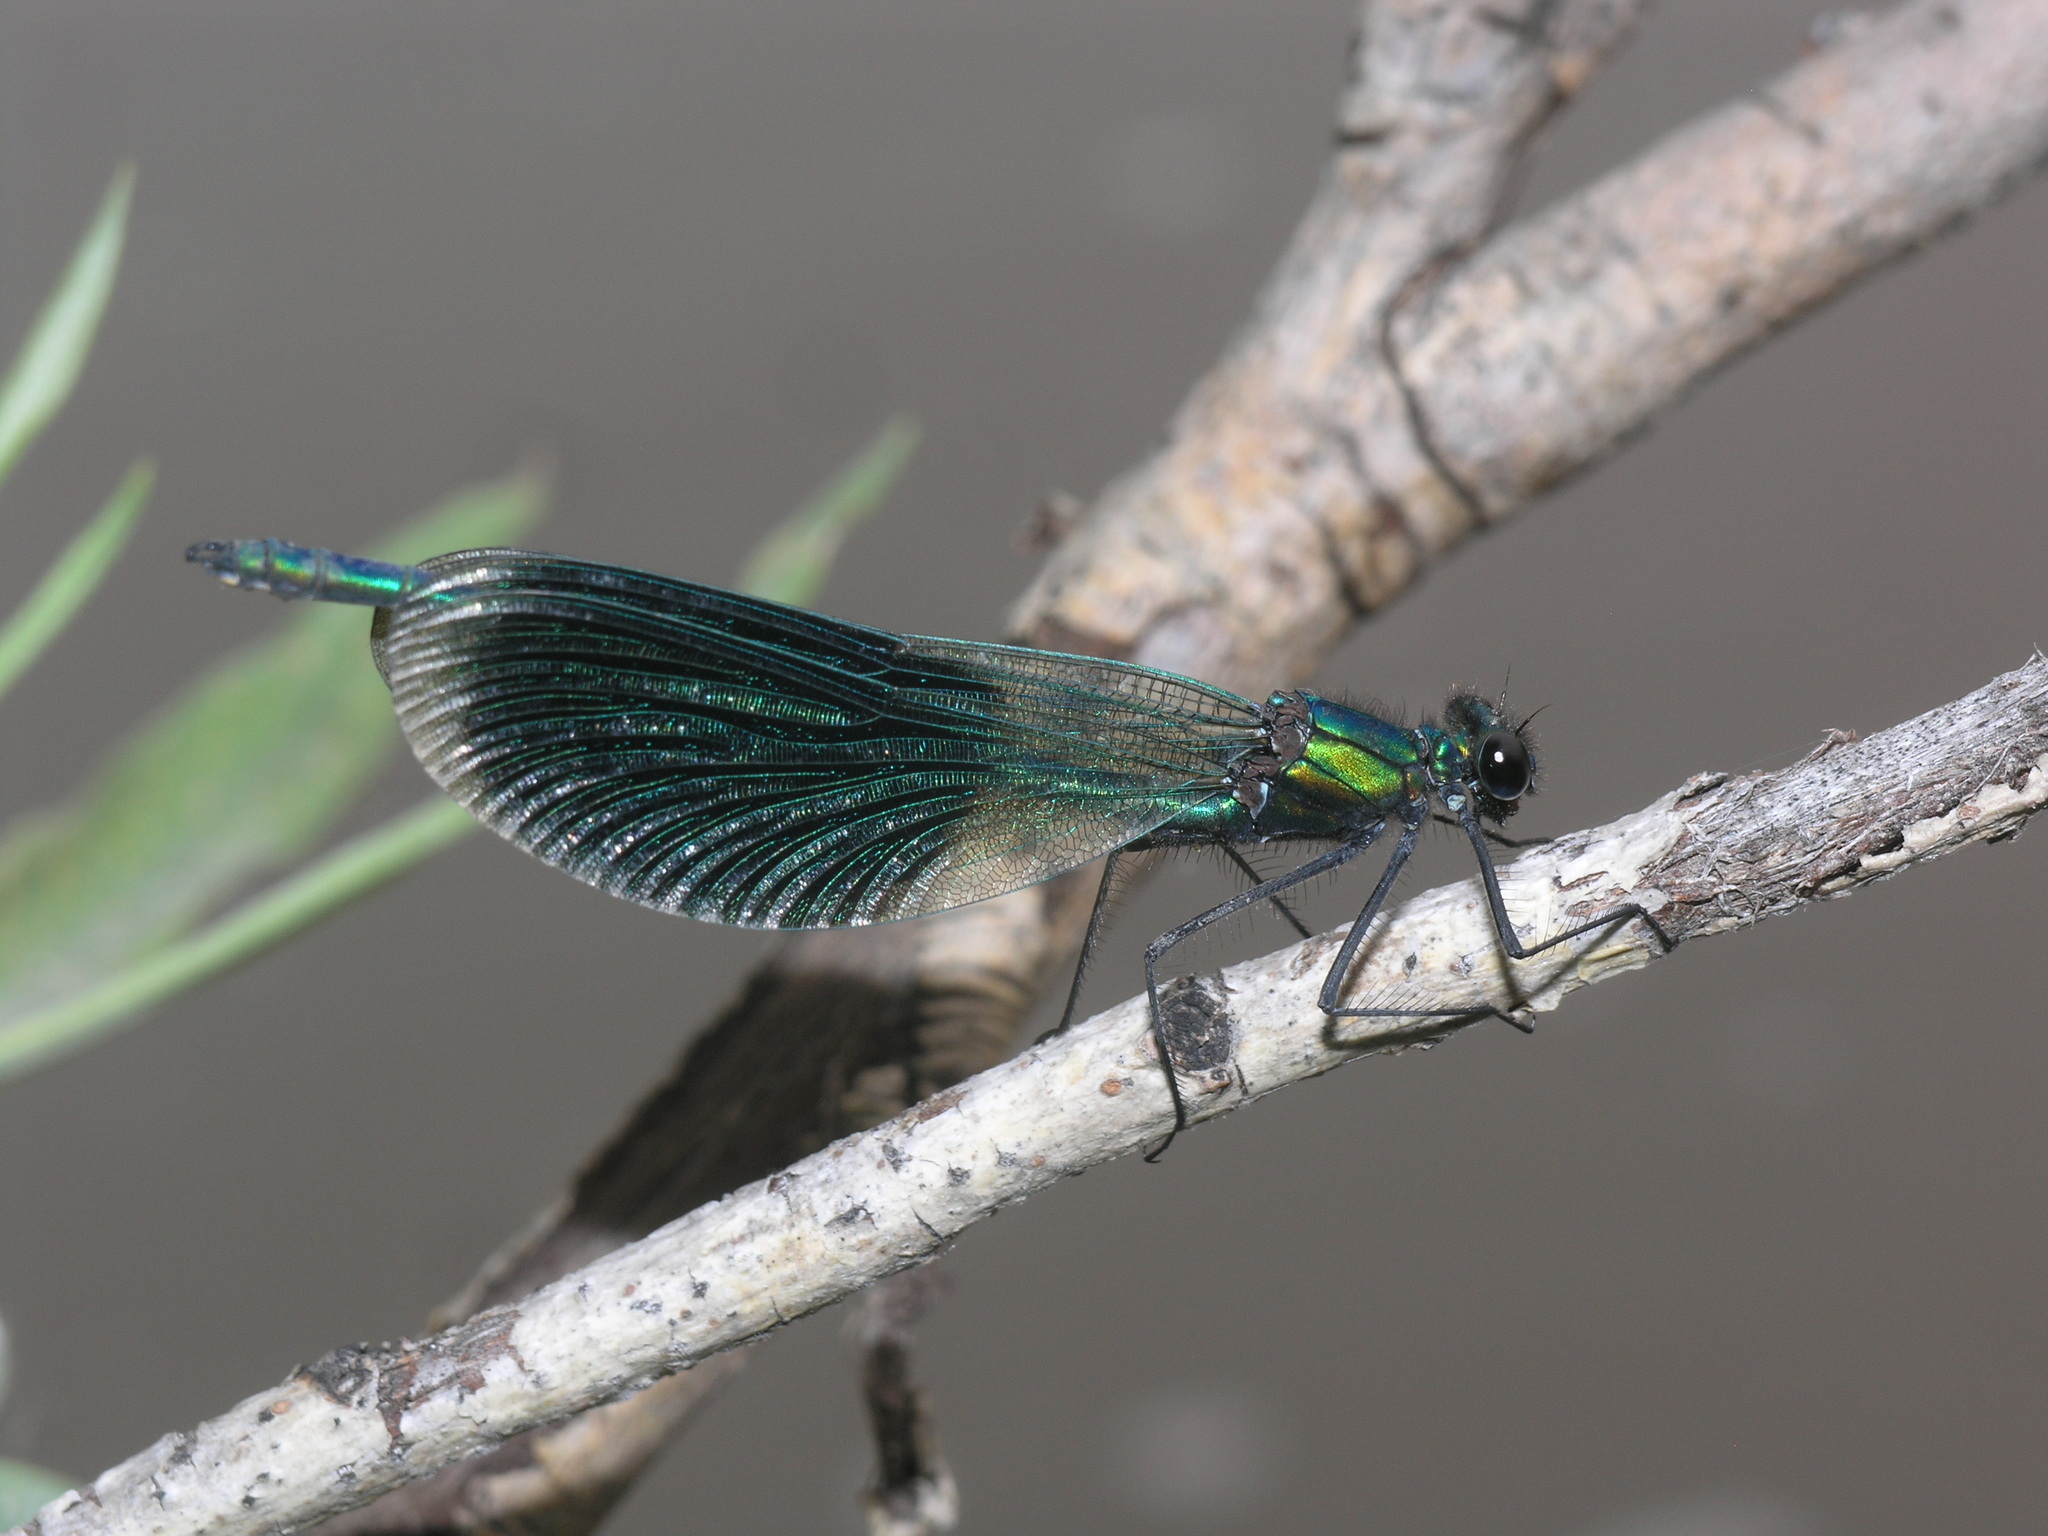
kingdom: Animalia
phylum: Arthropoda
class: Insecta
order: Odonata
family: Calopterygidae
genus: Calopteryx
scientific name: Calopteryx splendens
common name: Banded demoiselle
